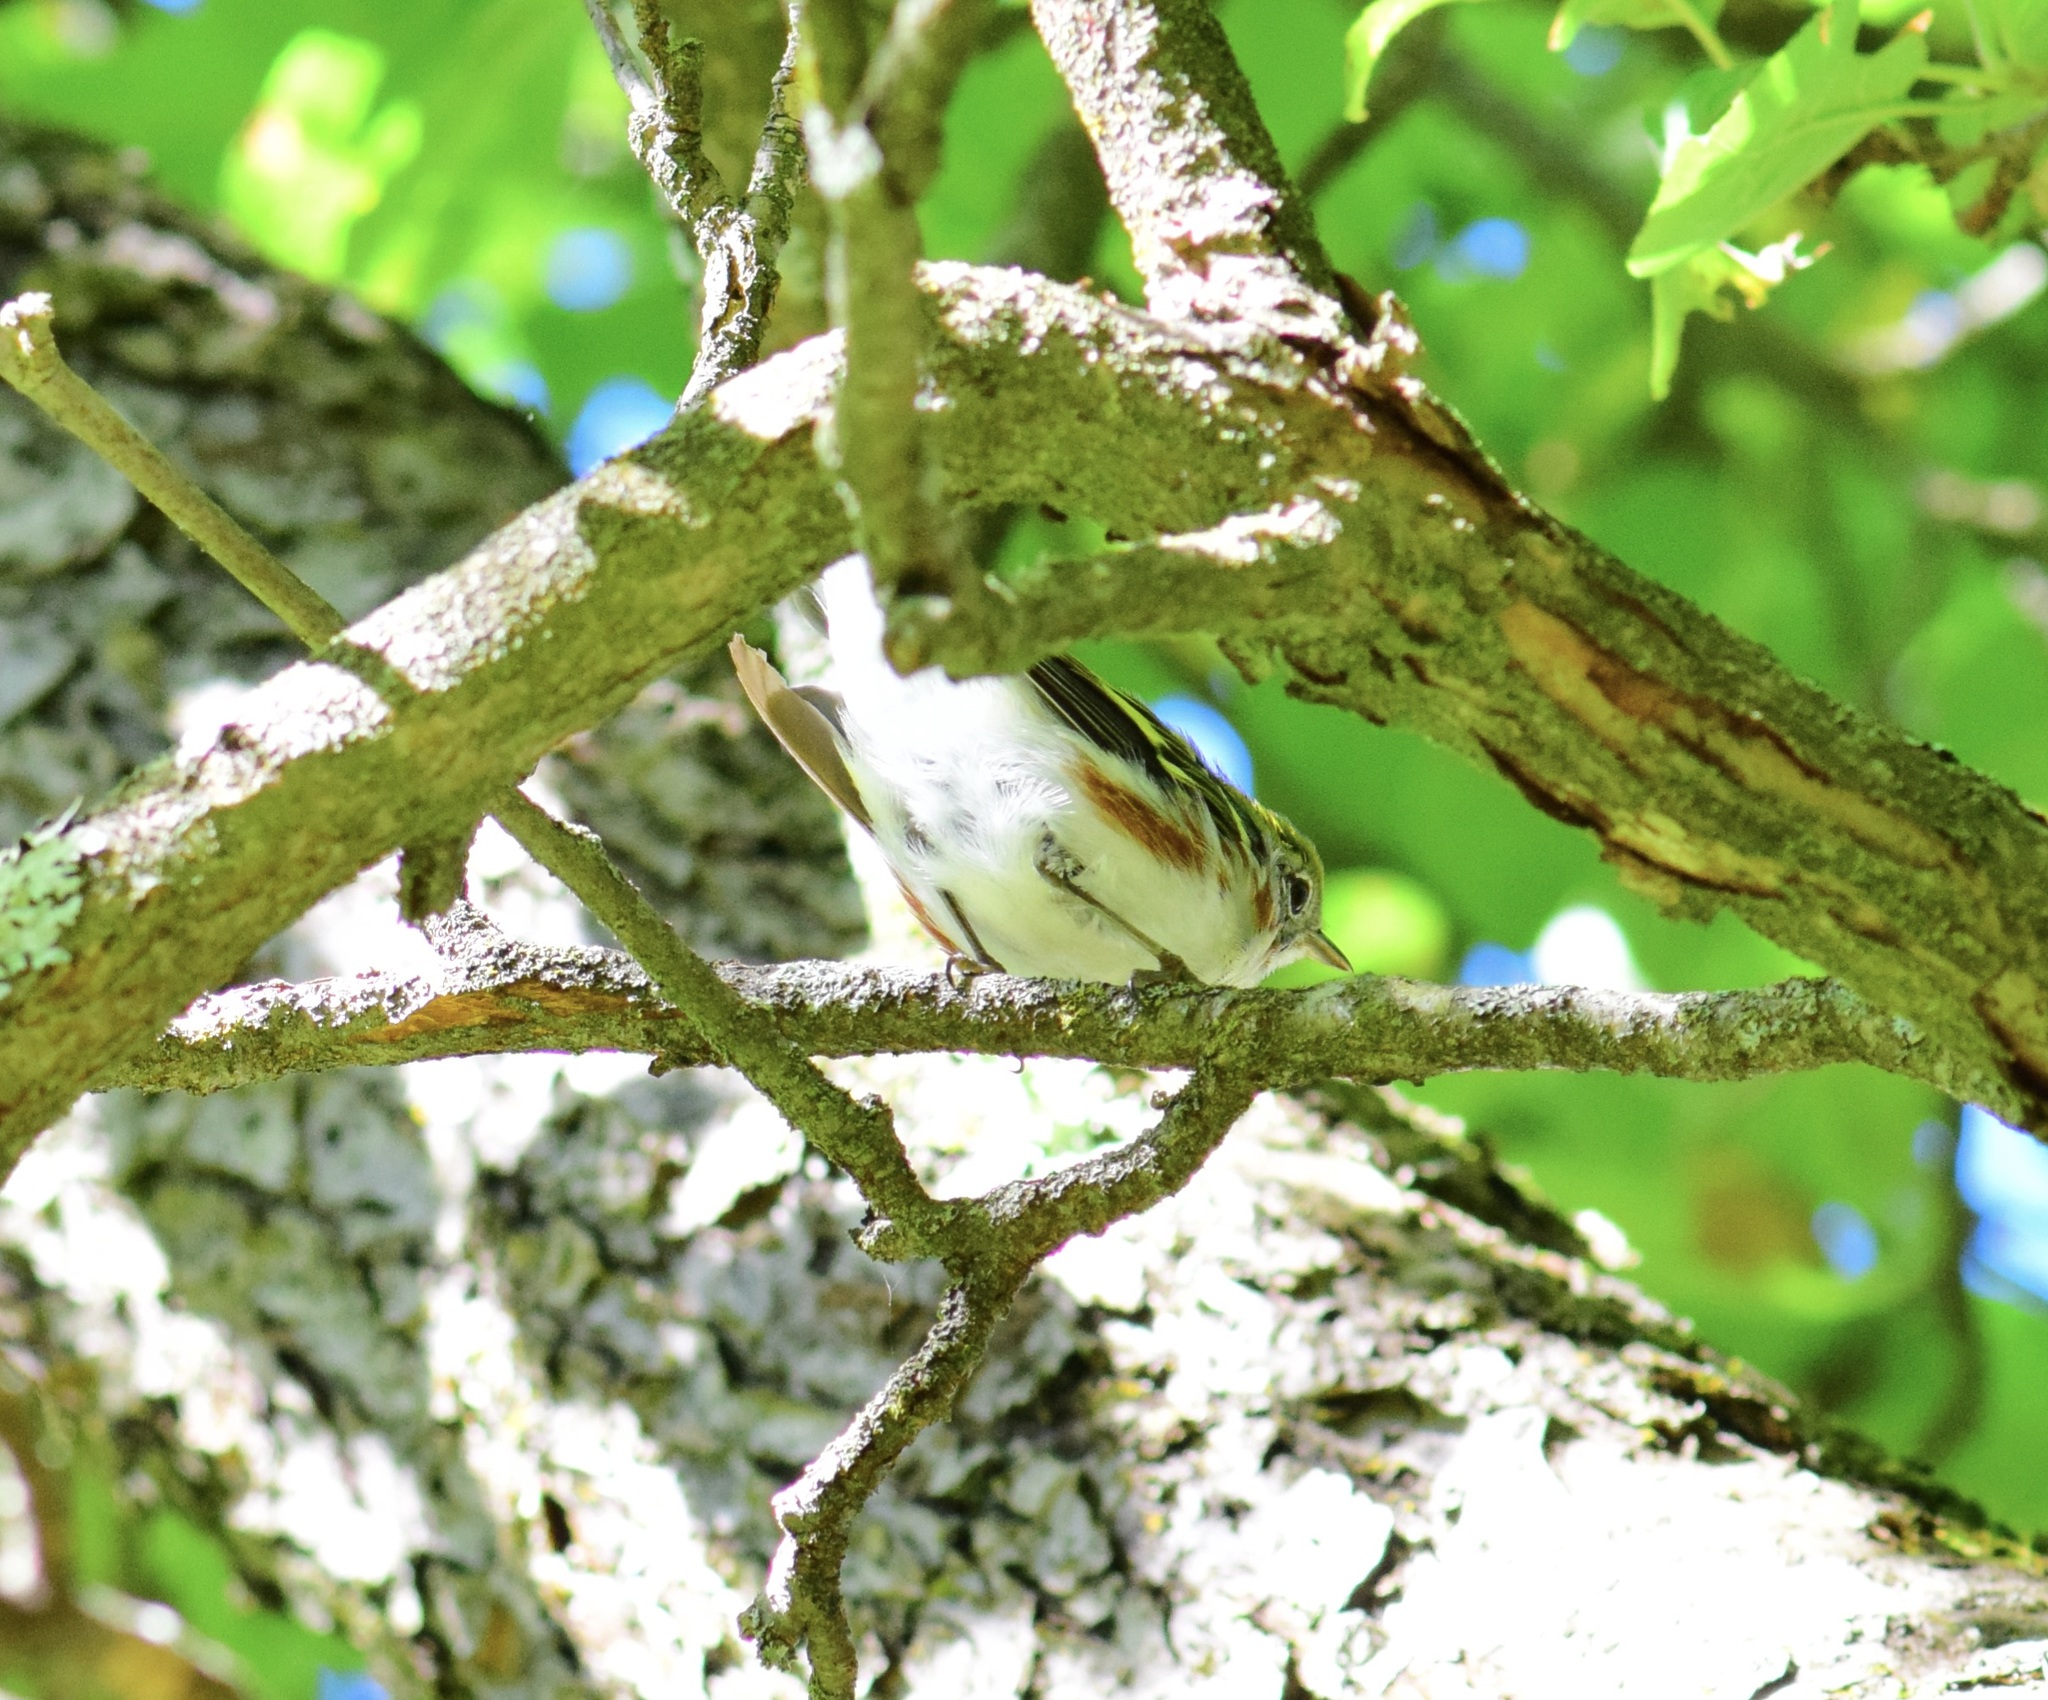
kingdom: Animalia
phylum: Chordata
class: Aves
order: Passeriformes
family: Parulidae
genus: Setophaga
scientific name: Setophaga pensylvanica
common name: Chestnut-sided warbler
